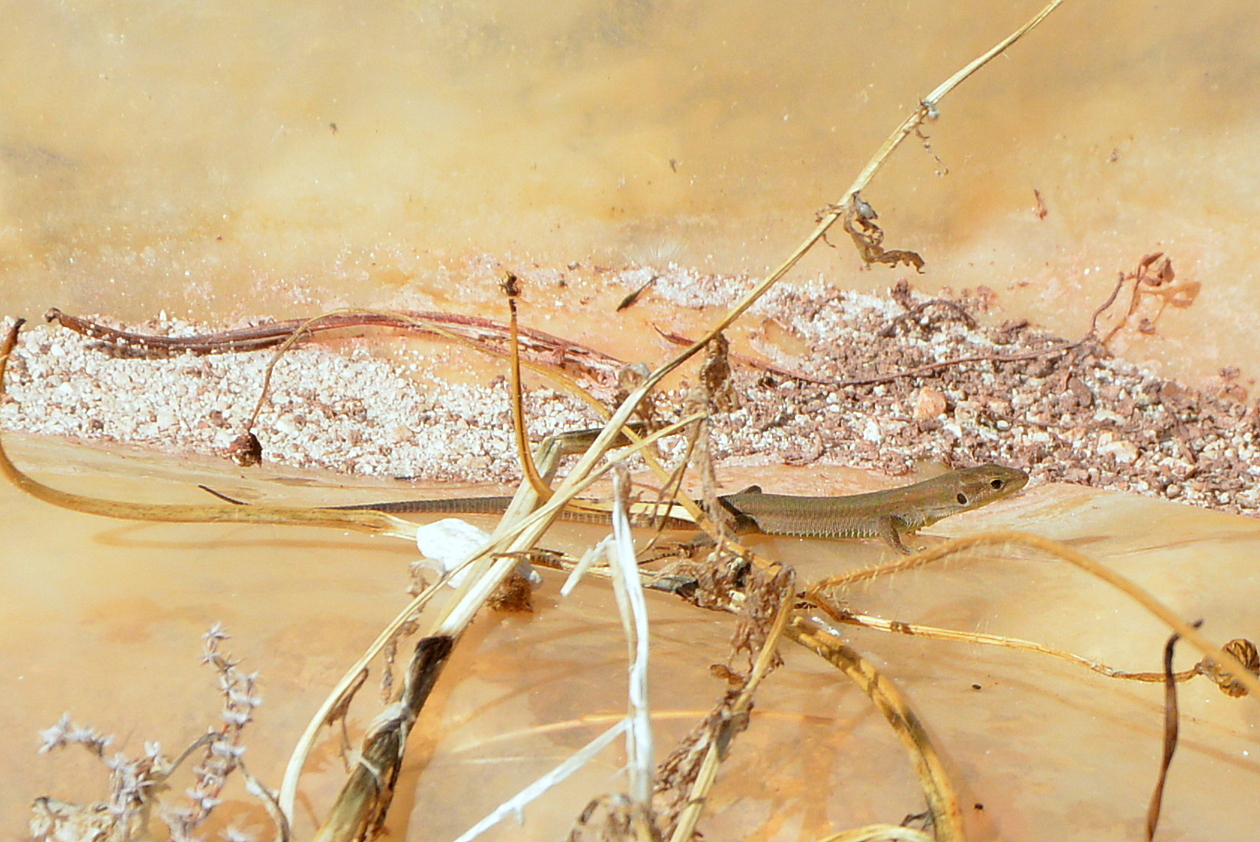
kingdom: Animalia
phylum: Chordata
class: Squamata
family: Lacertidae
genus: Podarcis
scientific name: Podarcis melisellensis
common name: Dalmatian wall lizard
